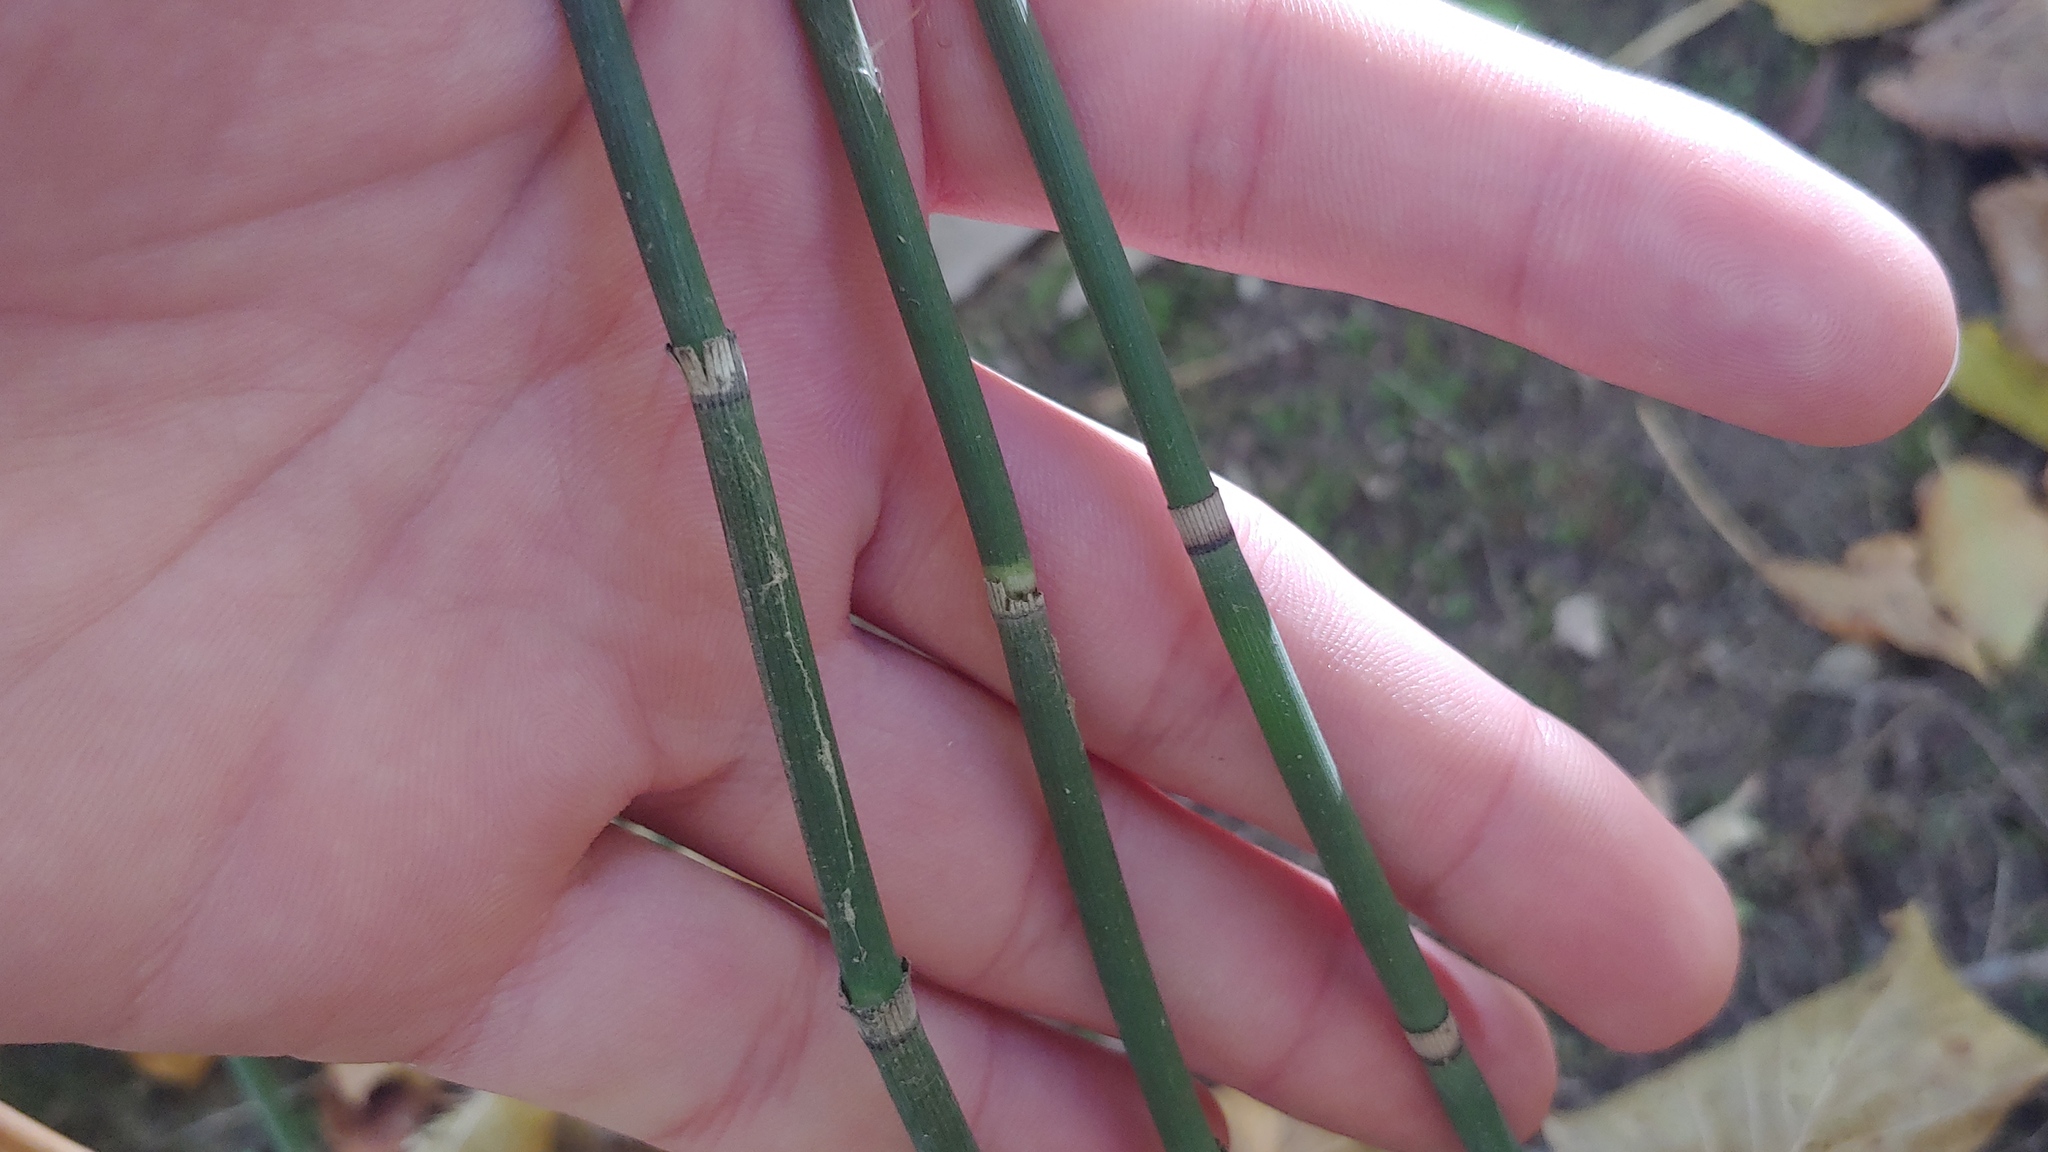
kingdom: Plantae
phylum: Tracheophyta
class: Polypodiopsida
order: Equisetales
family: Equisetaceae
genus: Equisetum
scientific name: Equisetum hyemale
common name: Rough horsetail
